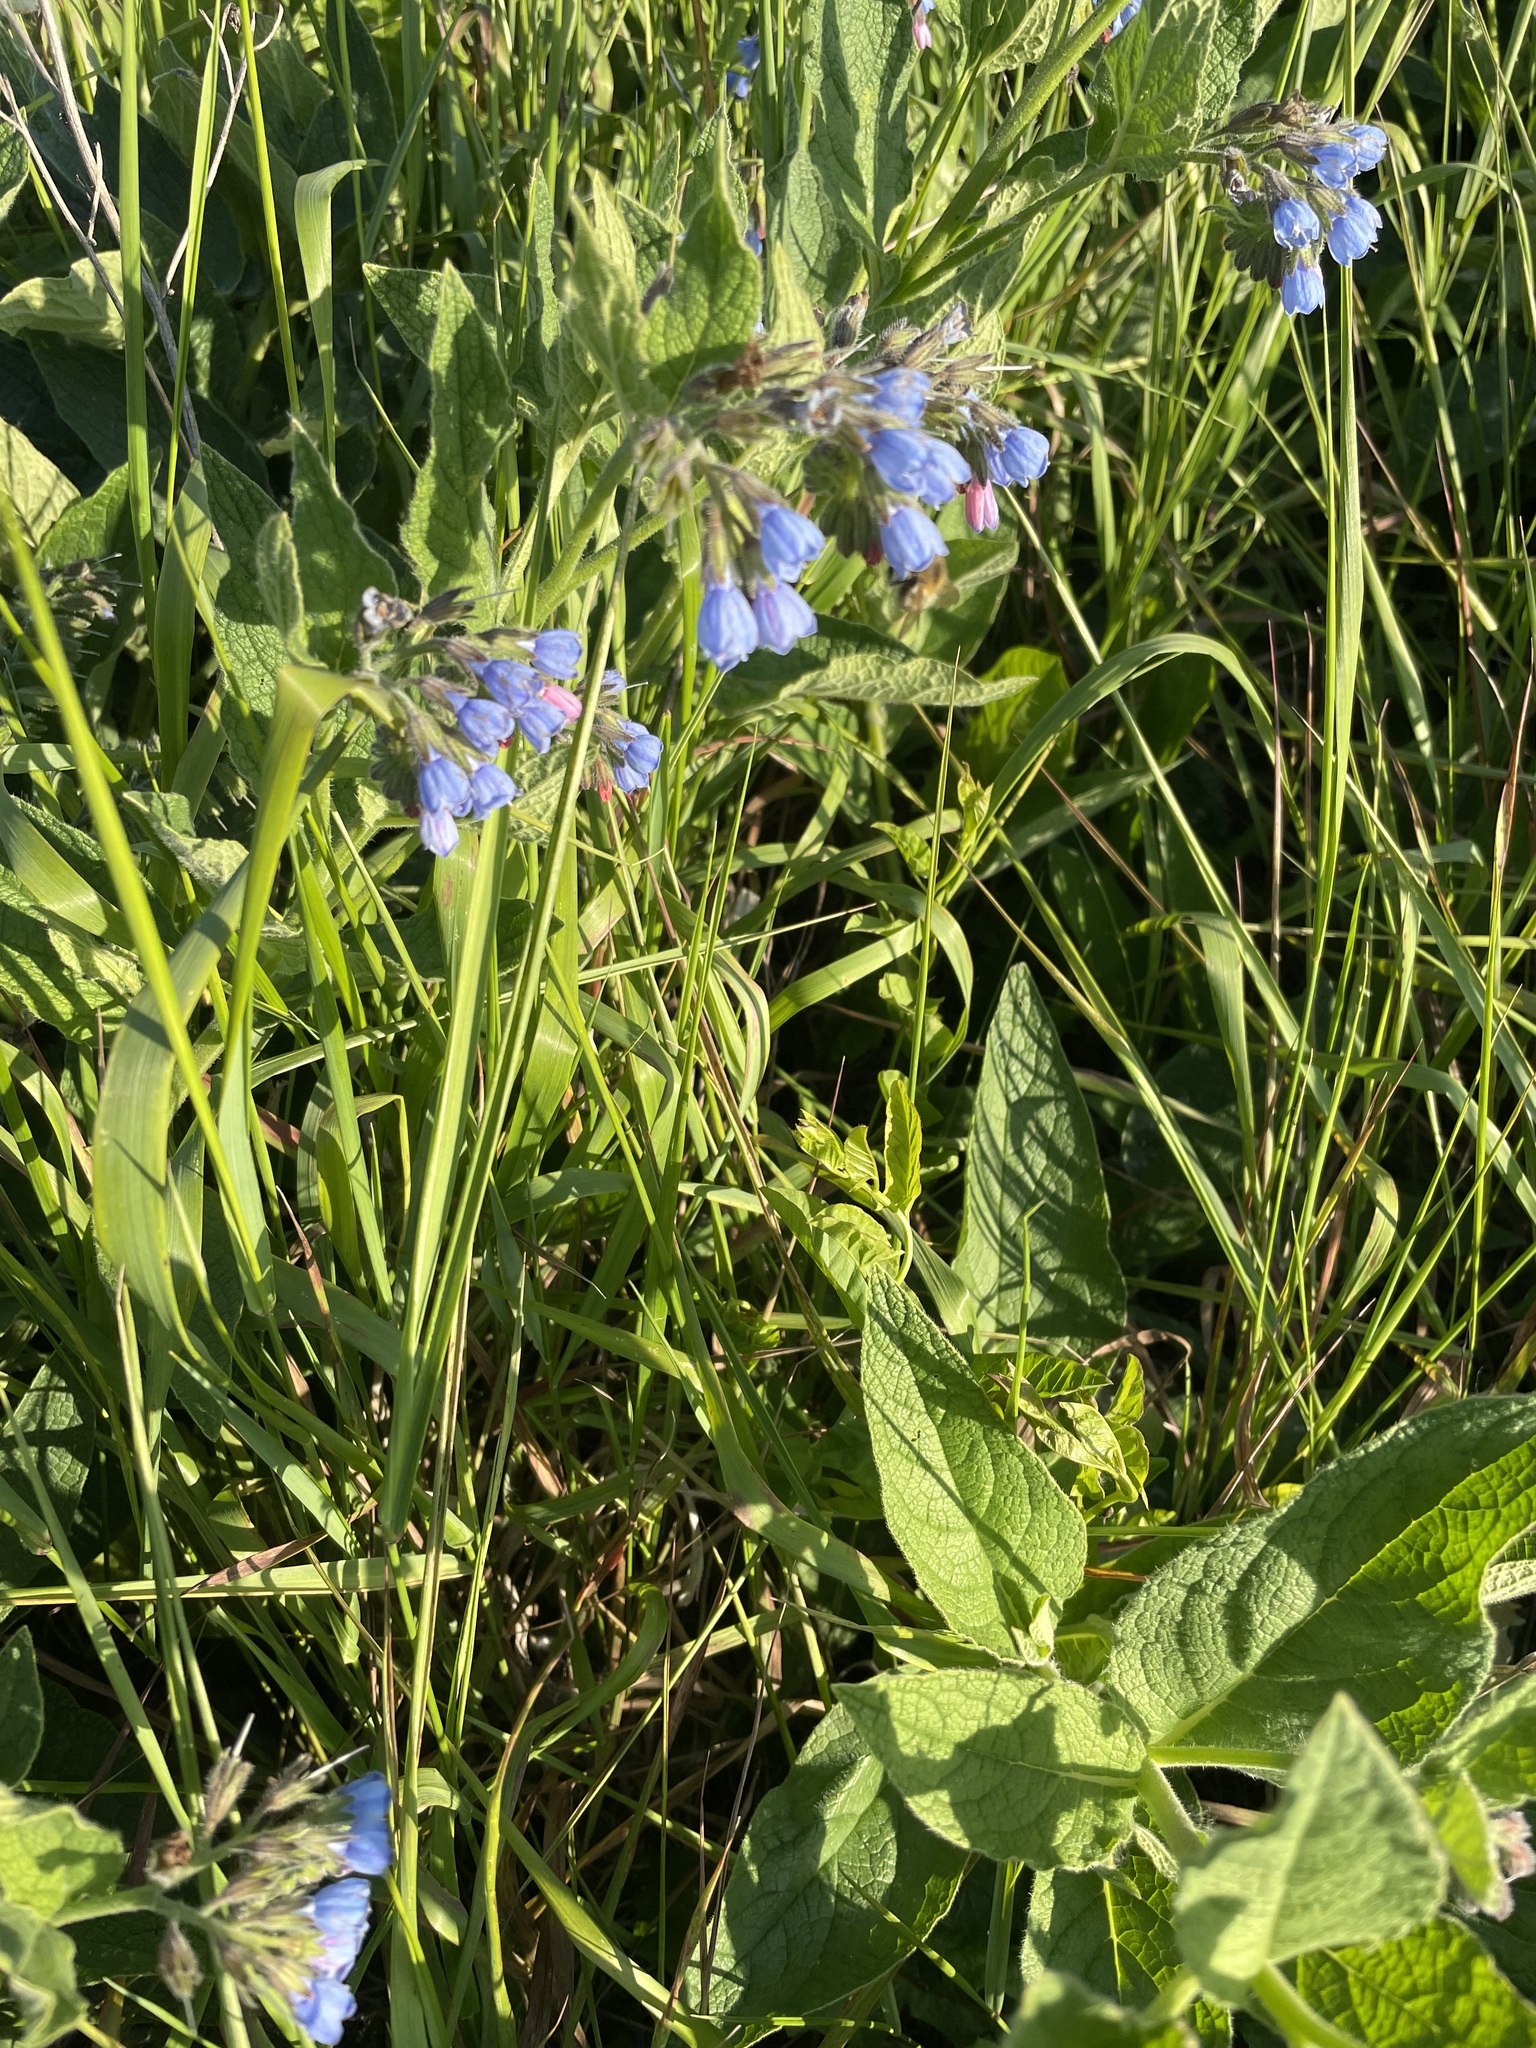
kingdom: Plantae
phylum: Tracheophyta
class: Magnoliopsida
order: Boraginales
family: Boraginaceae
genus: Symphytum
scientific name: Symphytum caucasicum
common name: Caucasian comfrey
